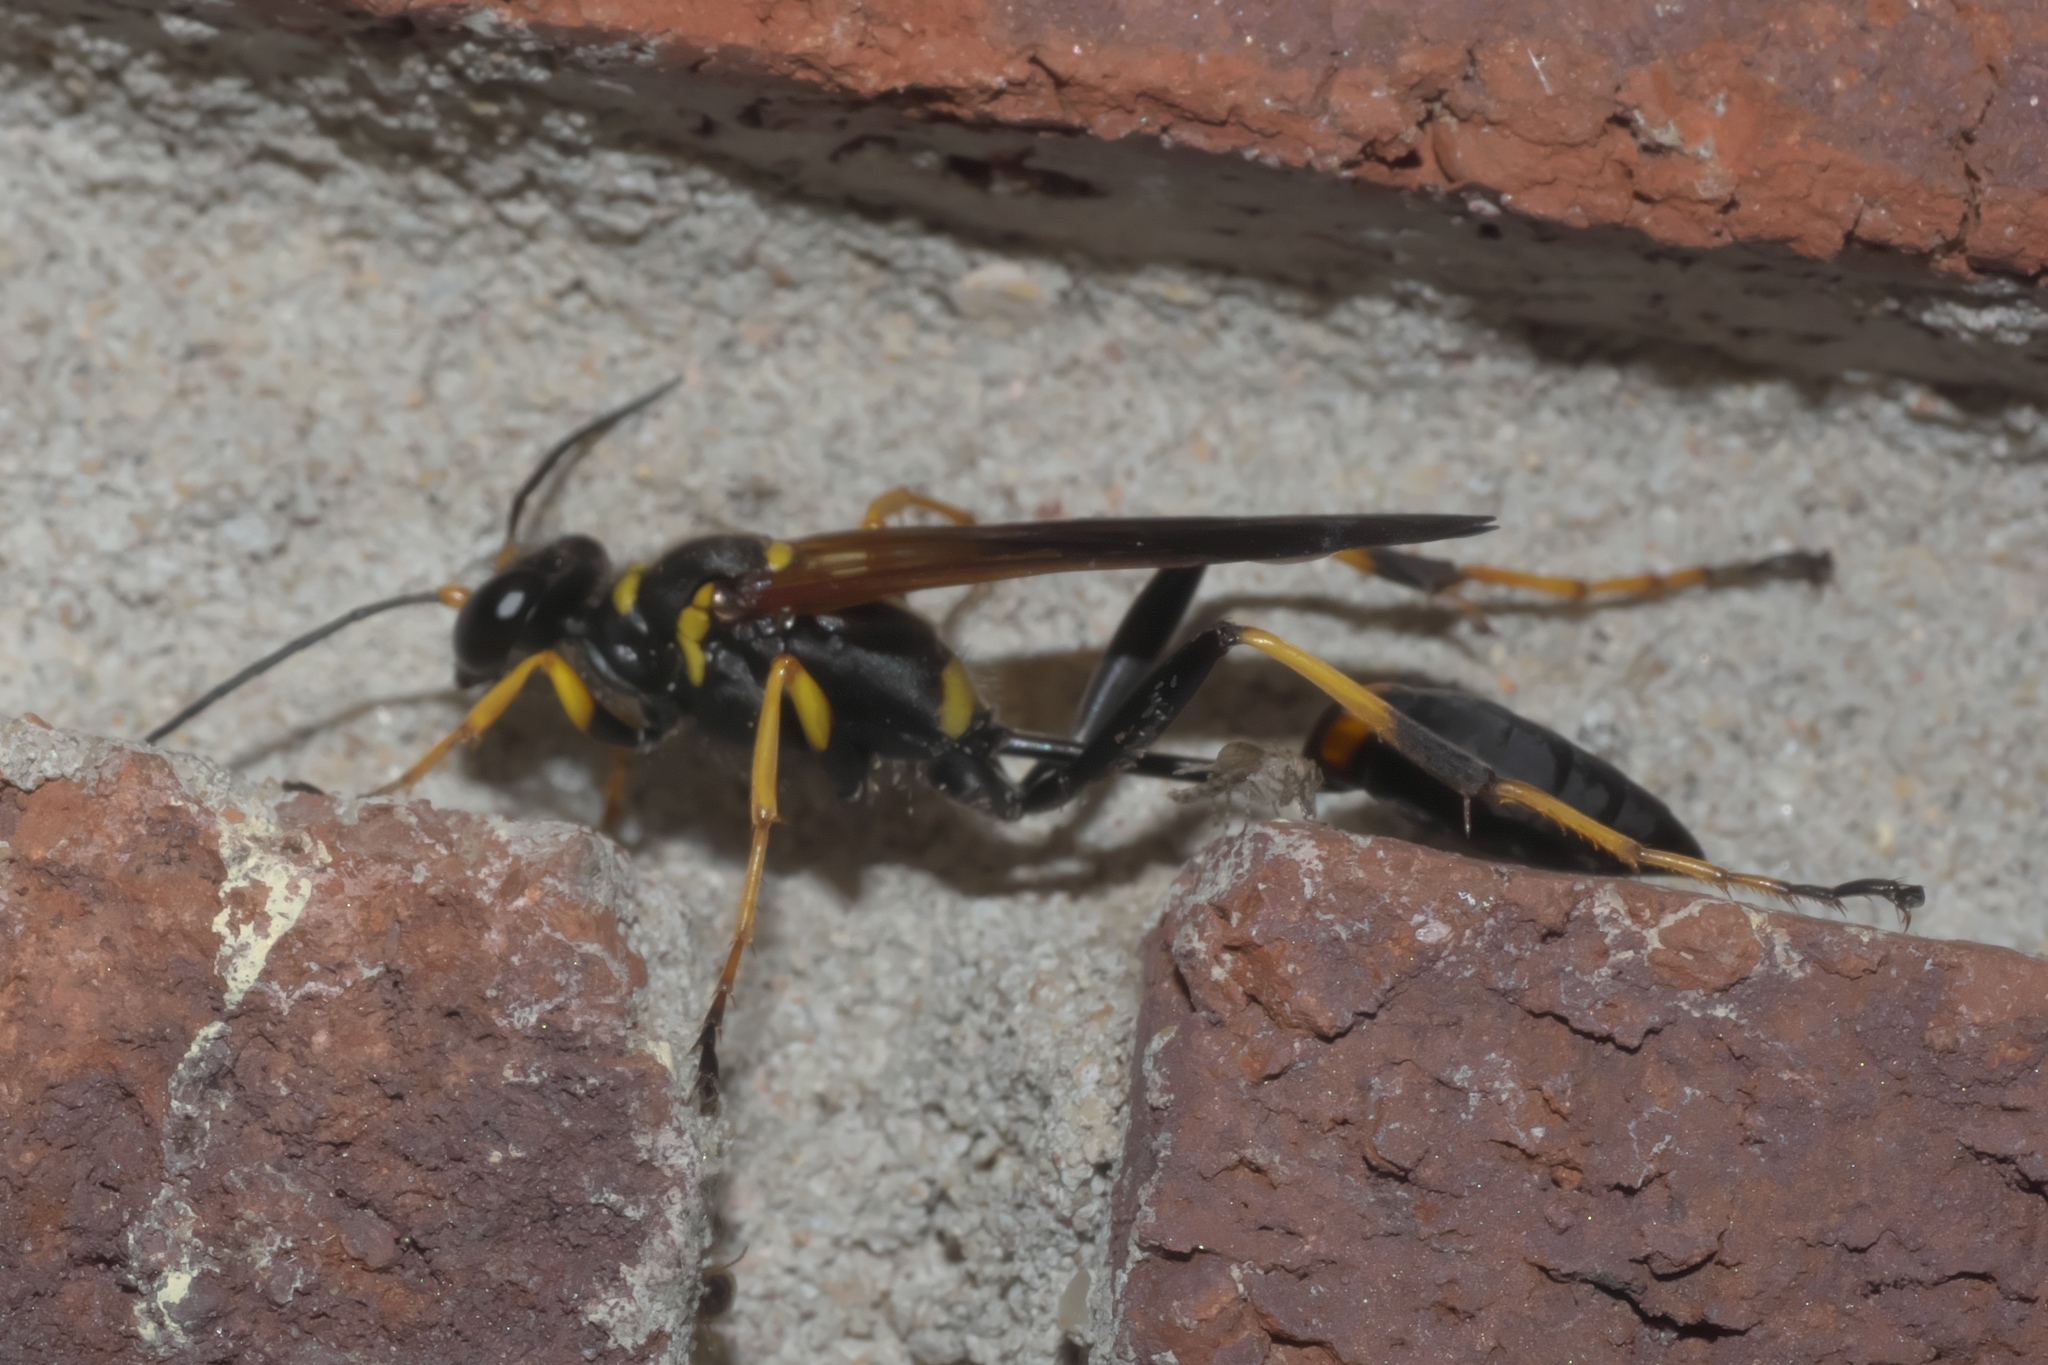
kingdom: Animalia
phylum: Arthropoda
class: Insecta
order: Hymenoptera
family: Sphecidae
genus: Sceliphron
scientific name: Sceliphron caementarium
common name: Mud dauber
